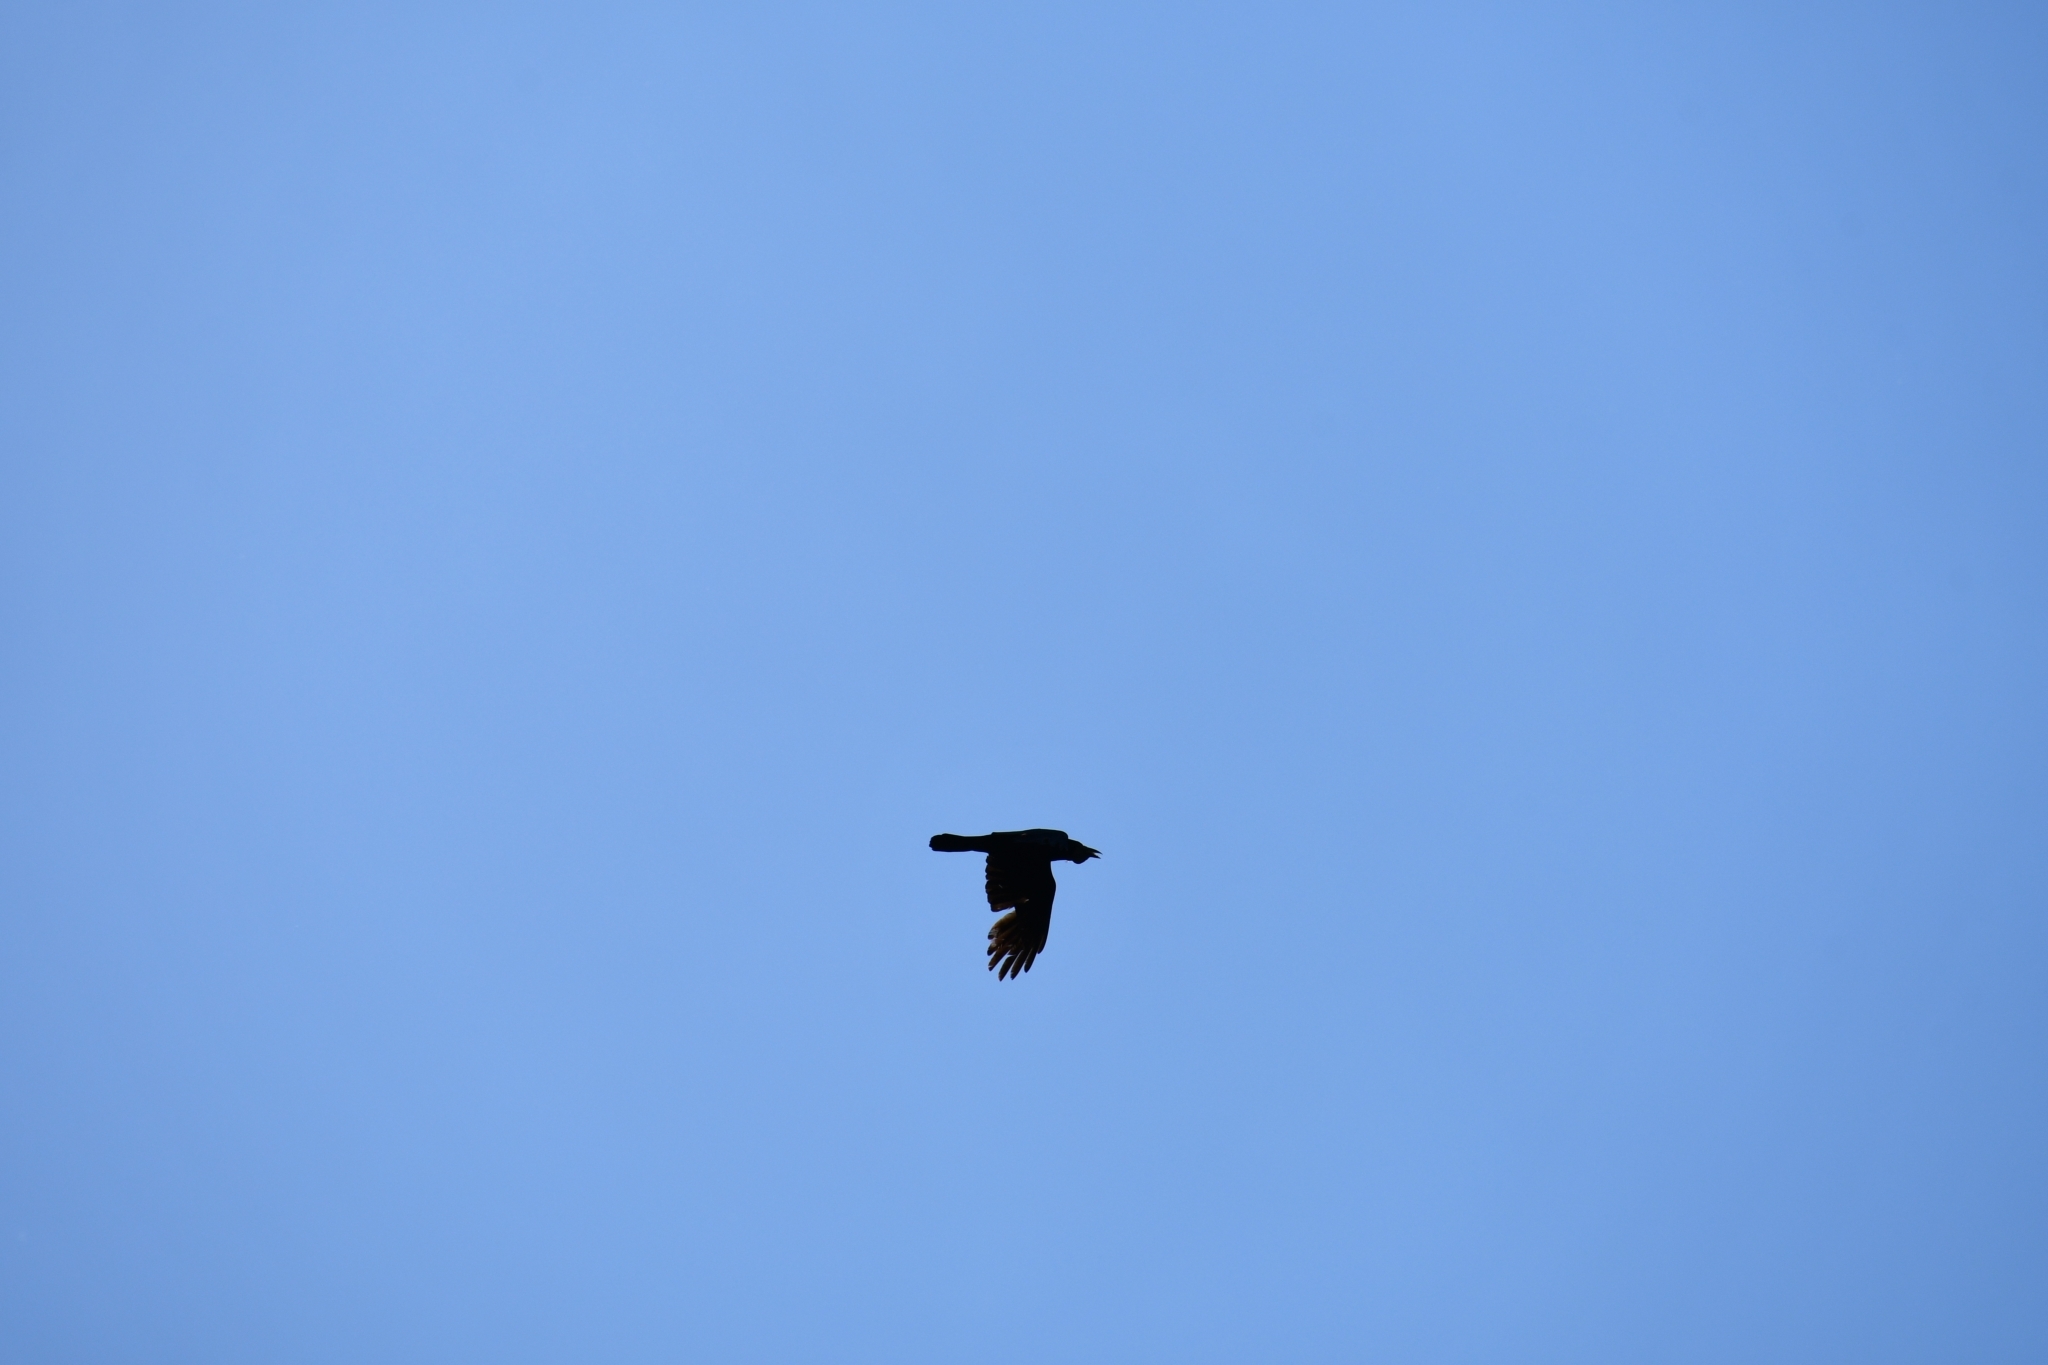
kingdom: Animalia
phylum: Chordata
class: Aves
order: Passeriformes
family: Corvidae
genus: Corvus
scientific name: Corvus corax
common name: Common raven
